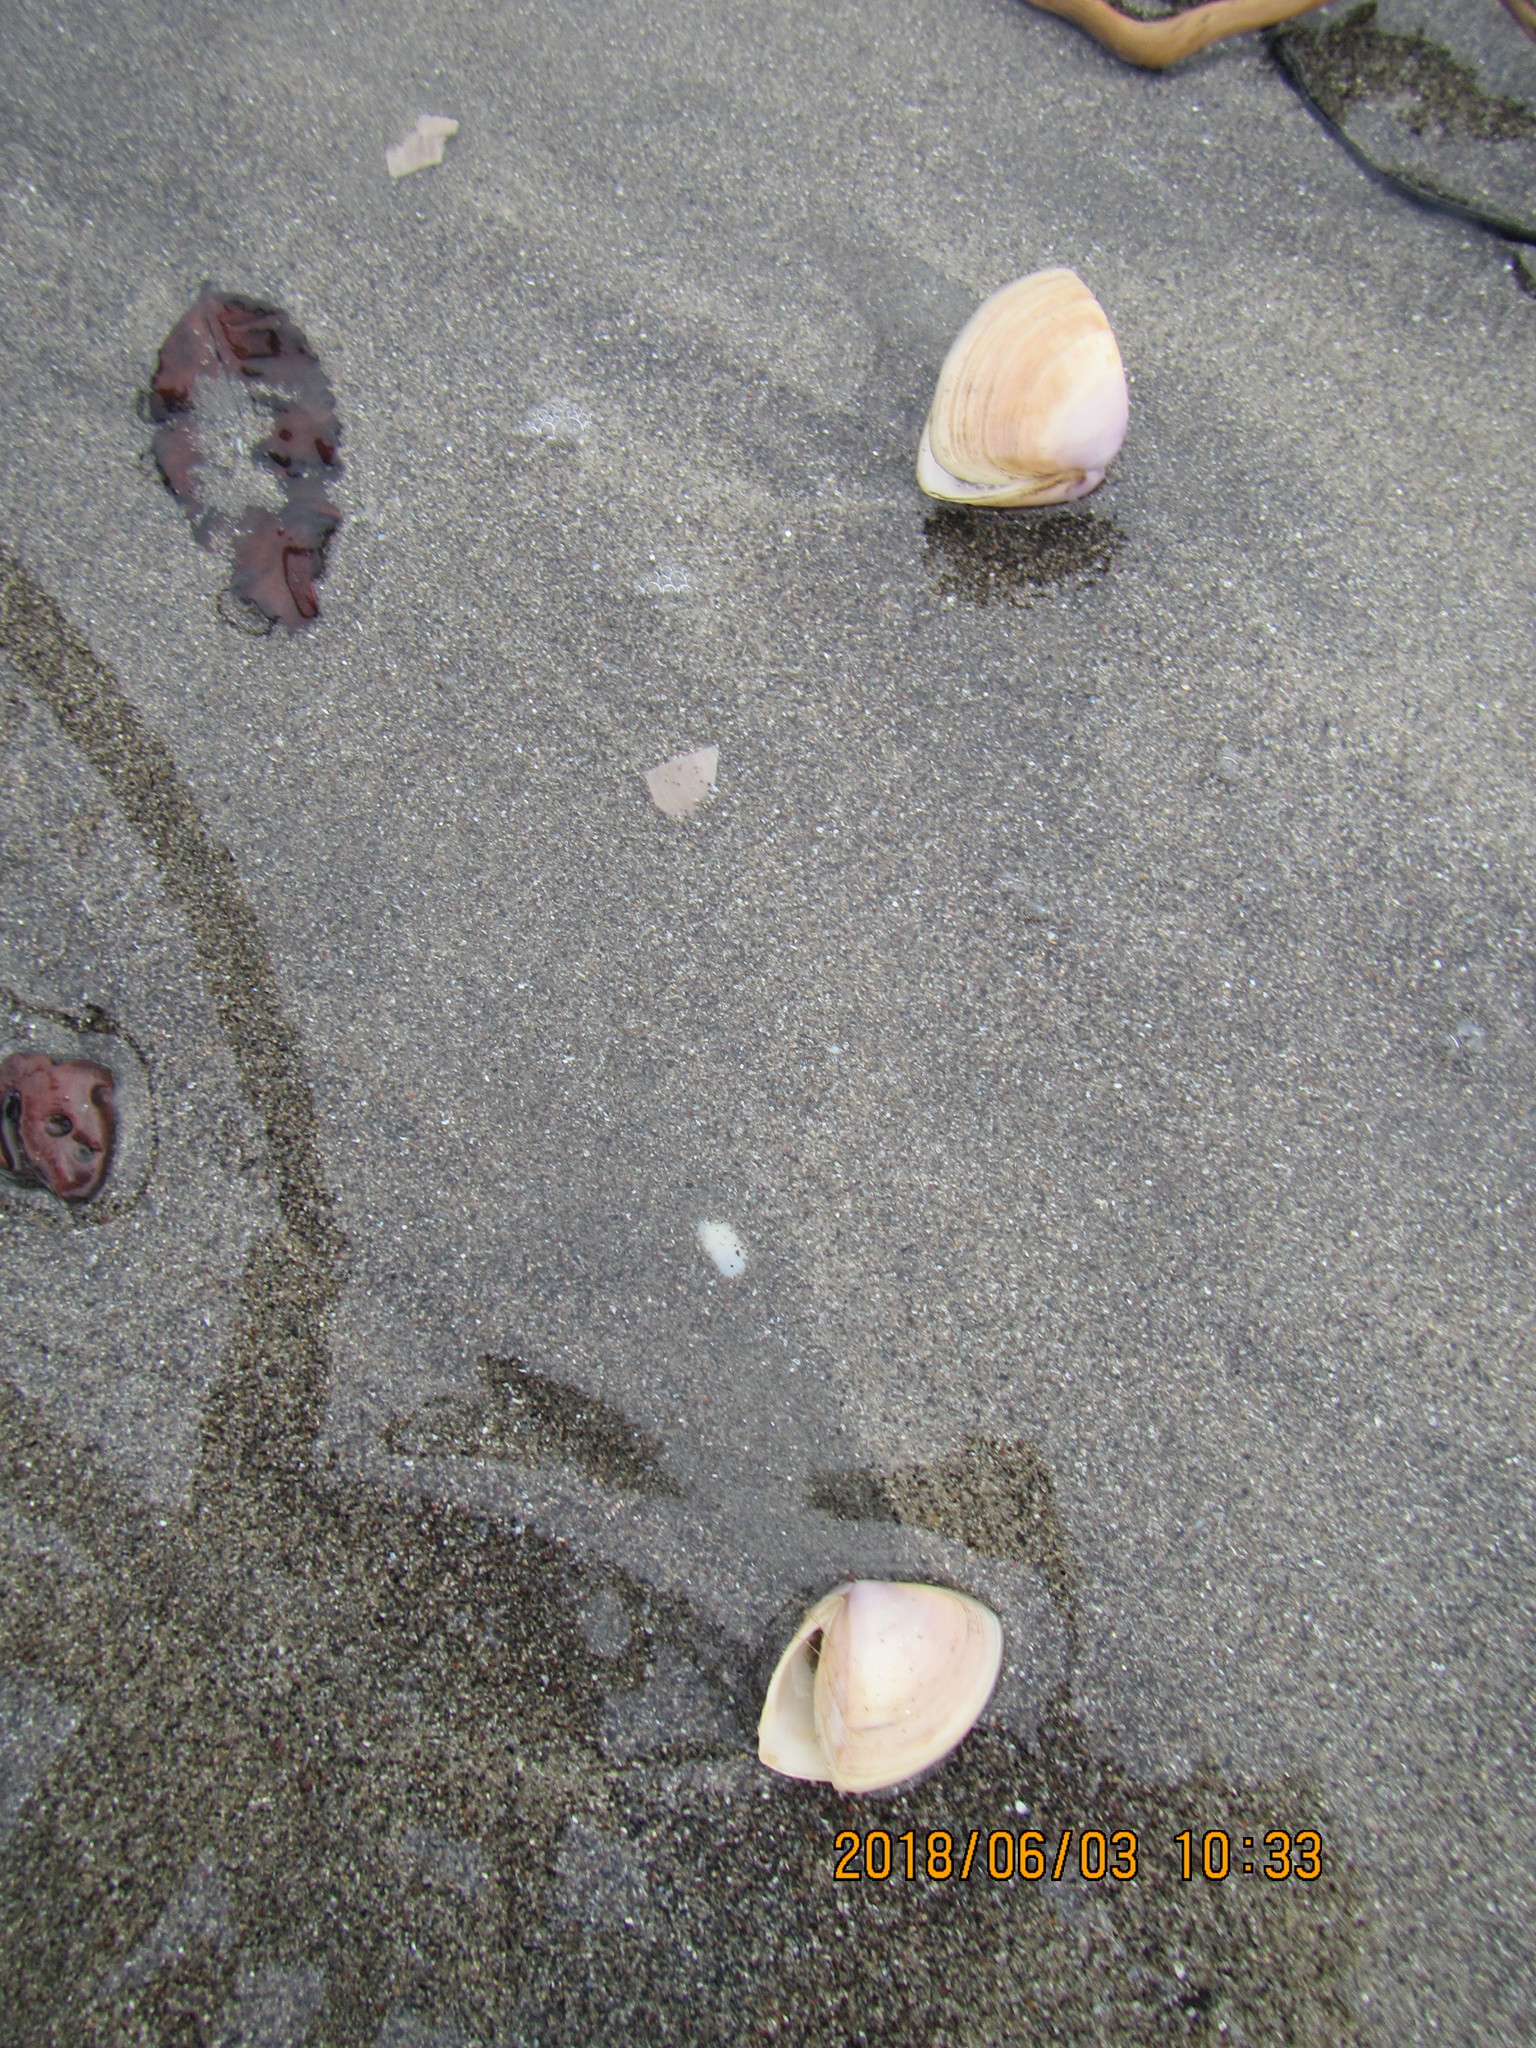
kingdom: Animalia
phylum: Mollusca
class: Bivalvia
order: Venerida
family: Mactridae
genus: Crassula
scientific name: Crassula aequilatera
